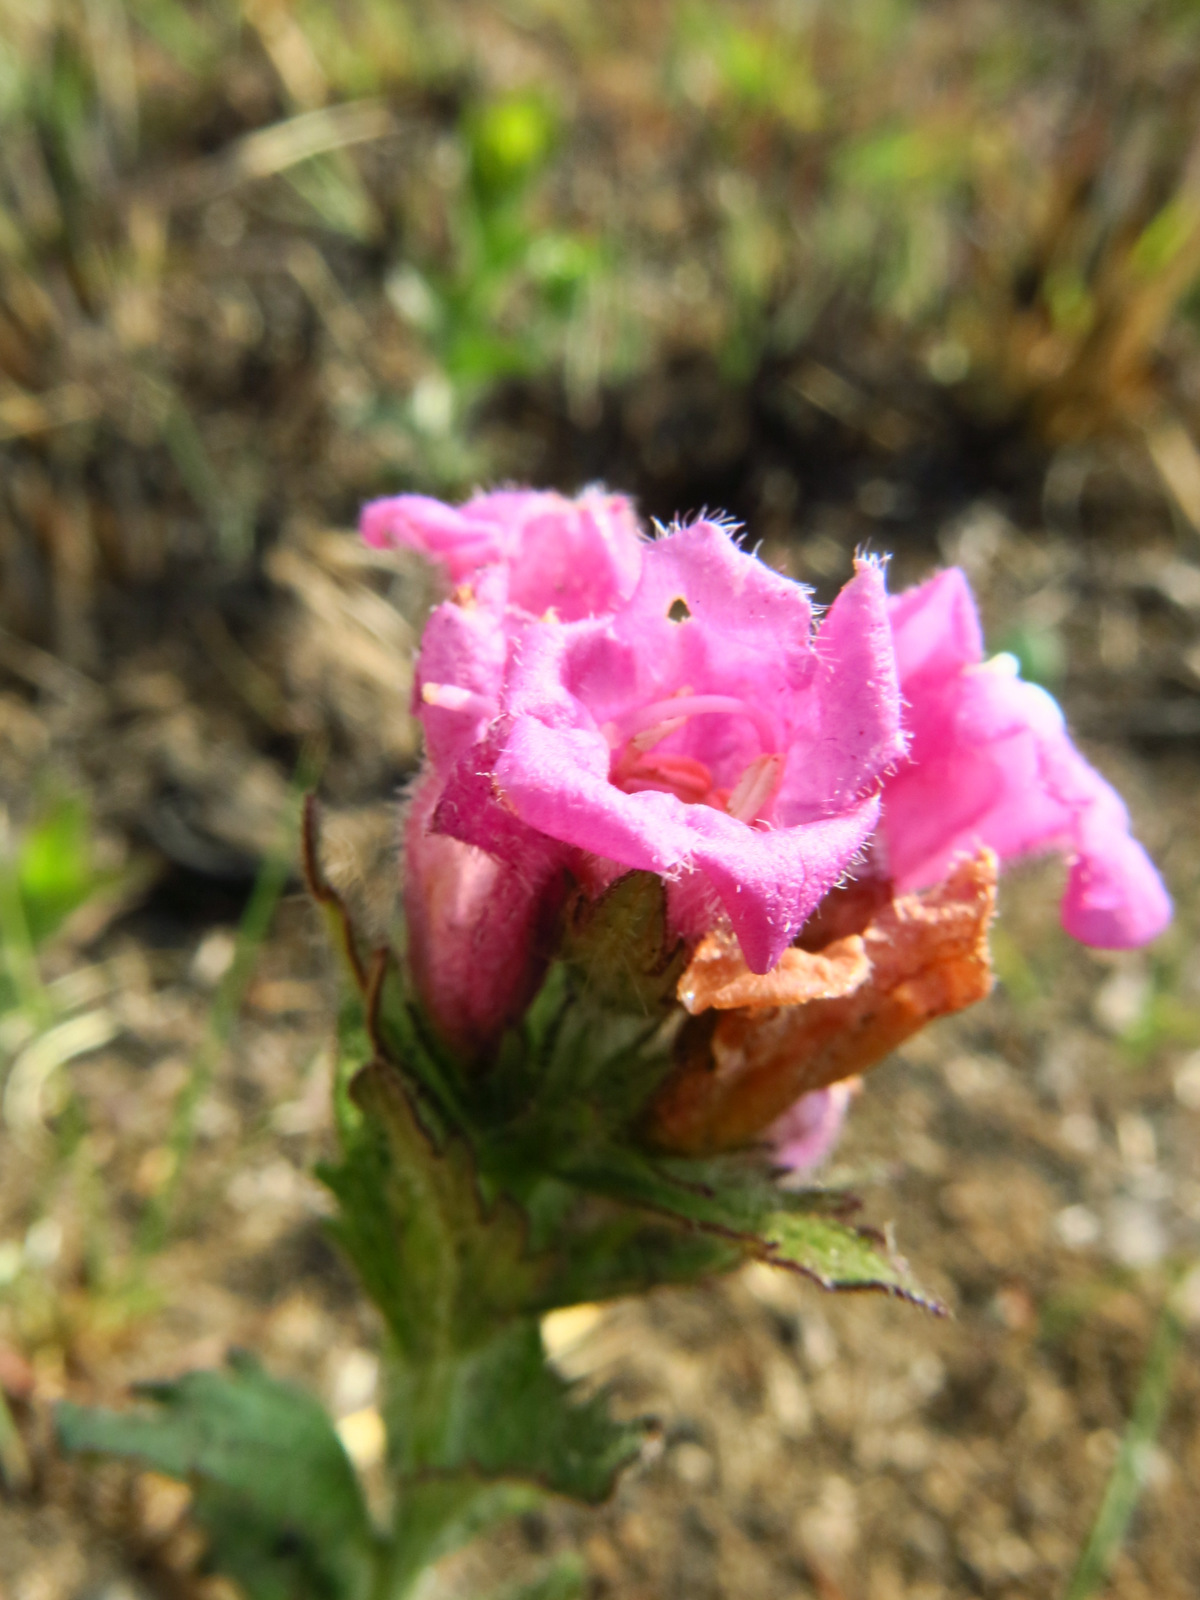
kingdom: Plantae
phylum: Tracheophyta
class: Magnoliopsida
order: Lamiales
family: Orobanchaceae
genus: Graderia
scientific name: Graderia scabra
